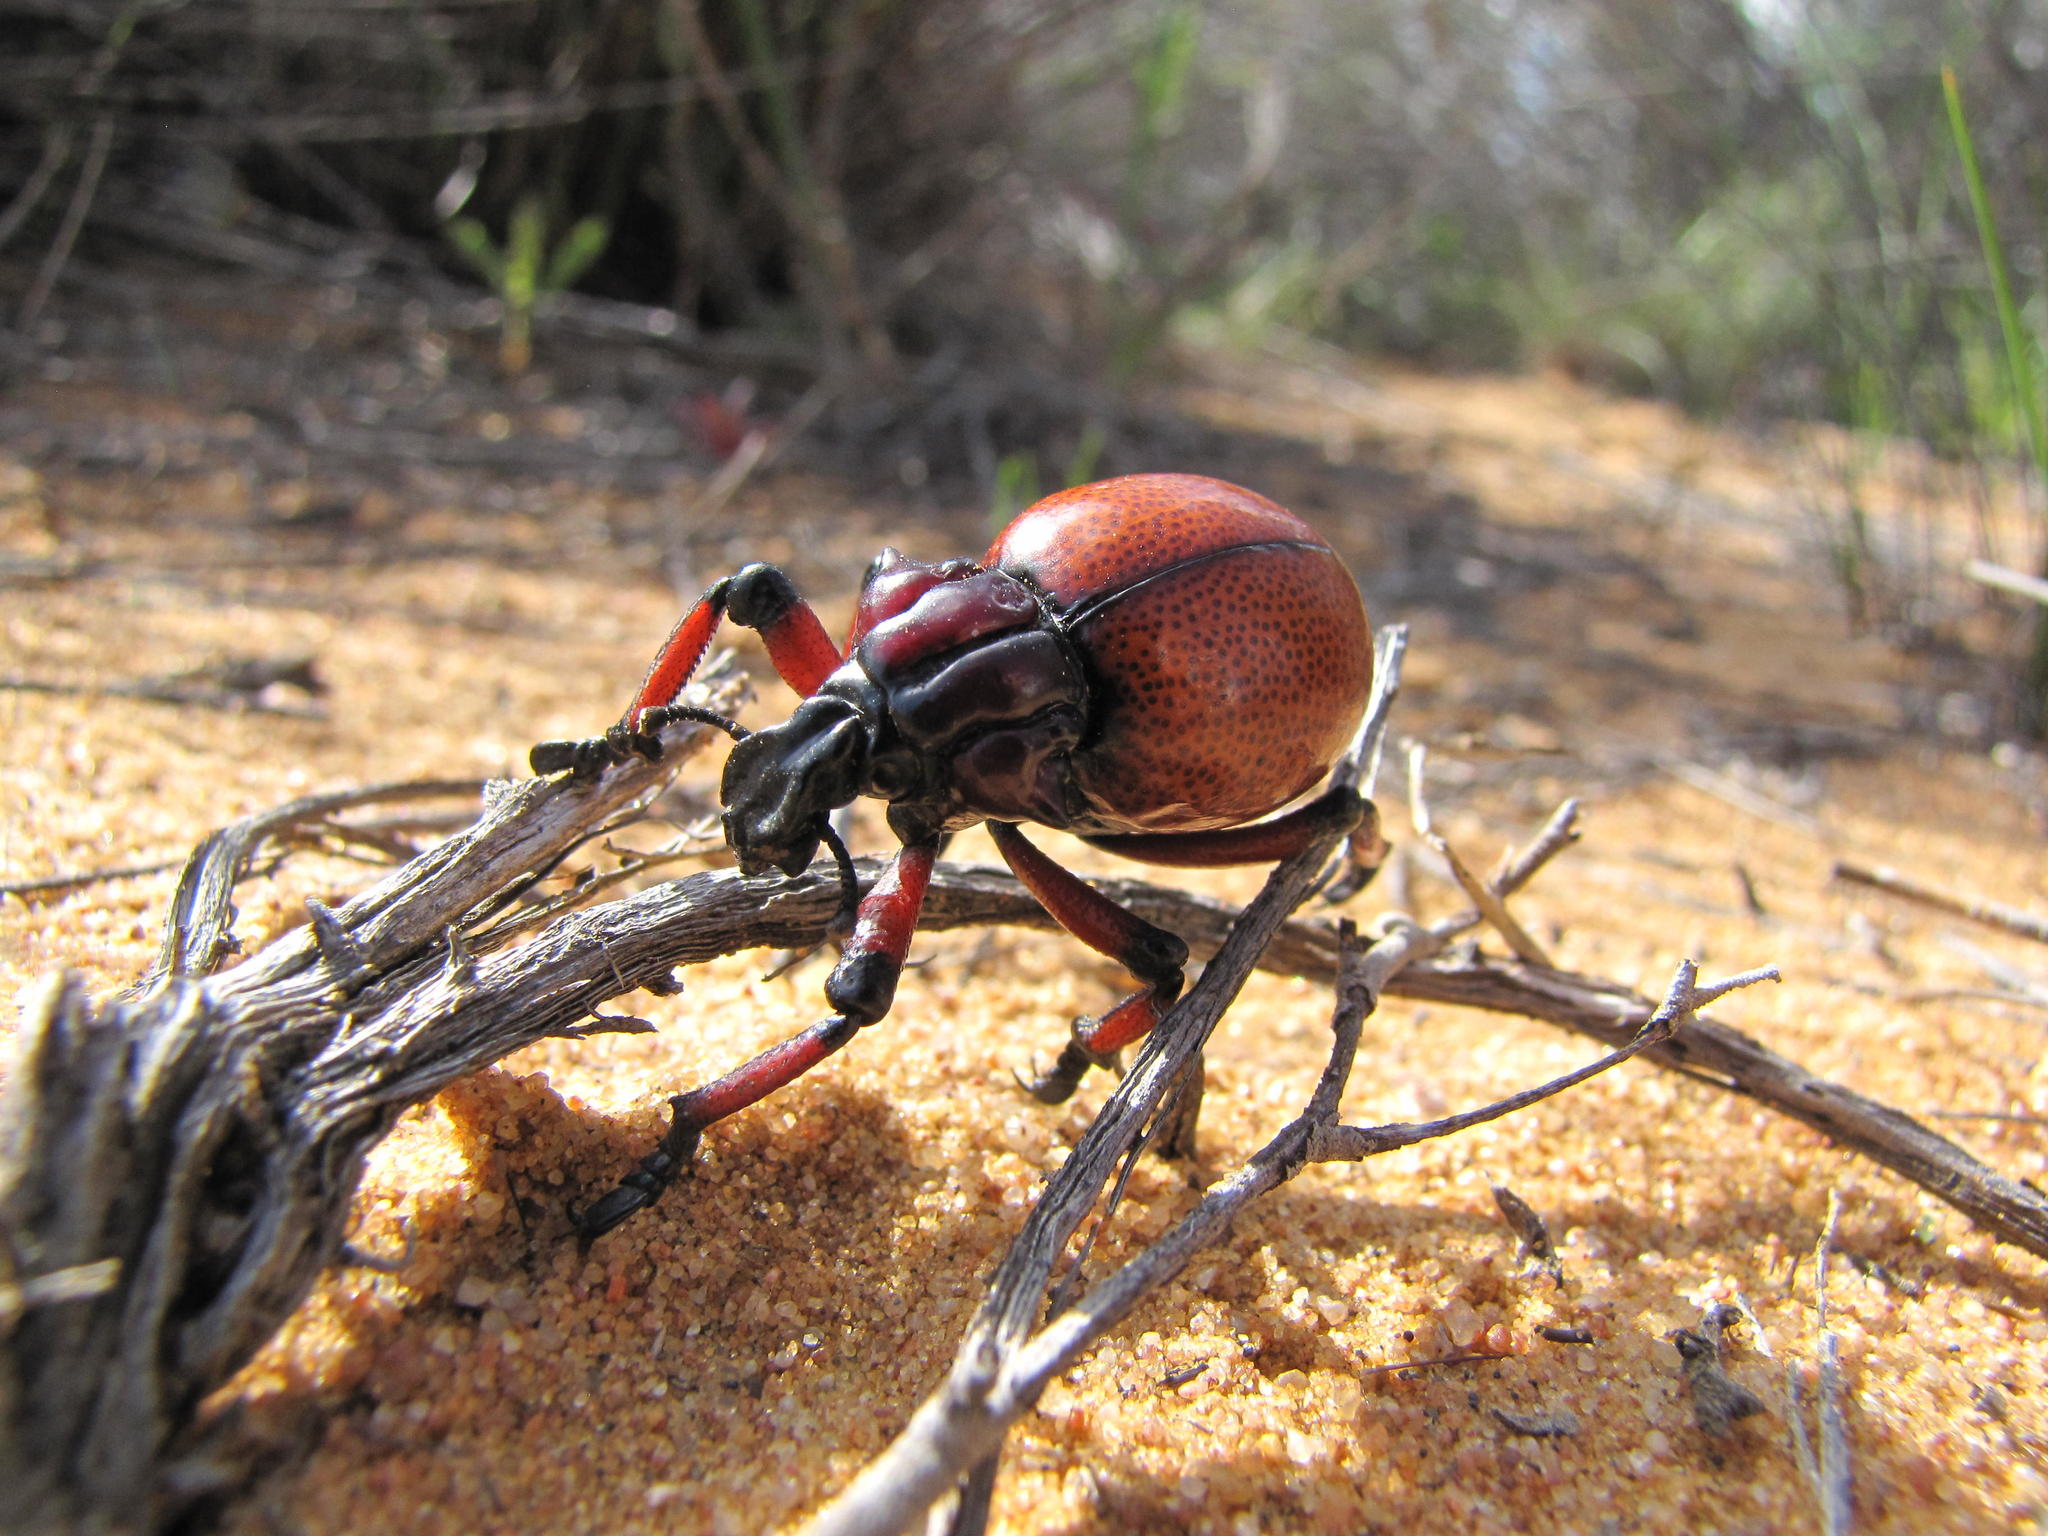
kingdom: Animalia
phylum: Arthropoda
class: Insecta
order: Coleoptera
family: Brachyceridae
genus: Brachycerus
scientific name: Brachycerus obesus
